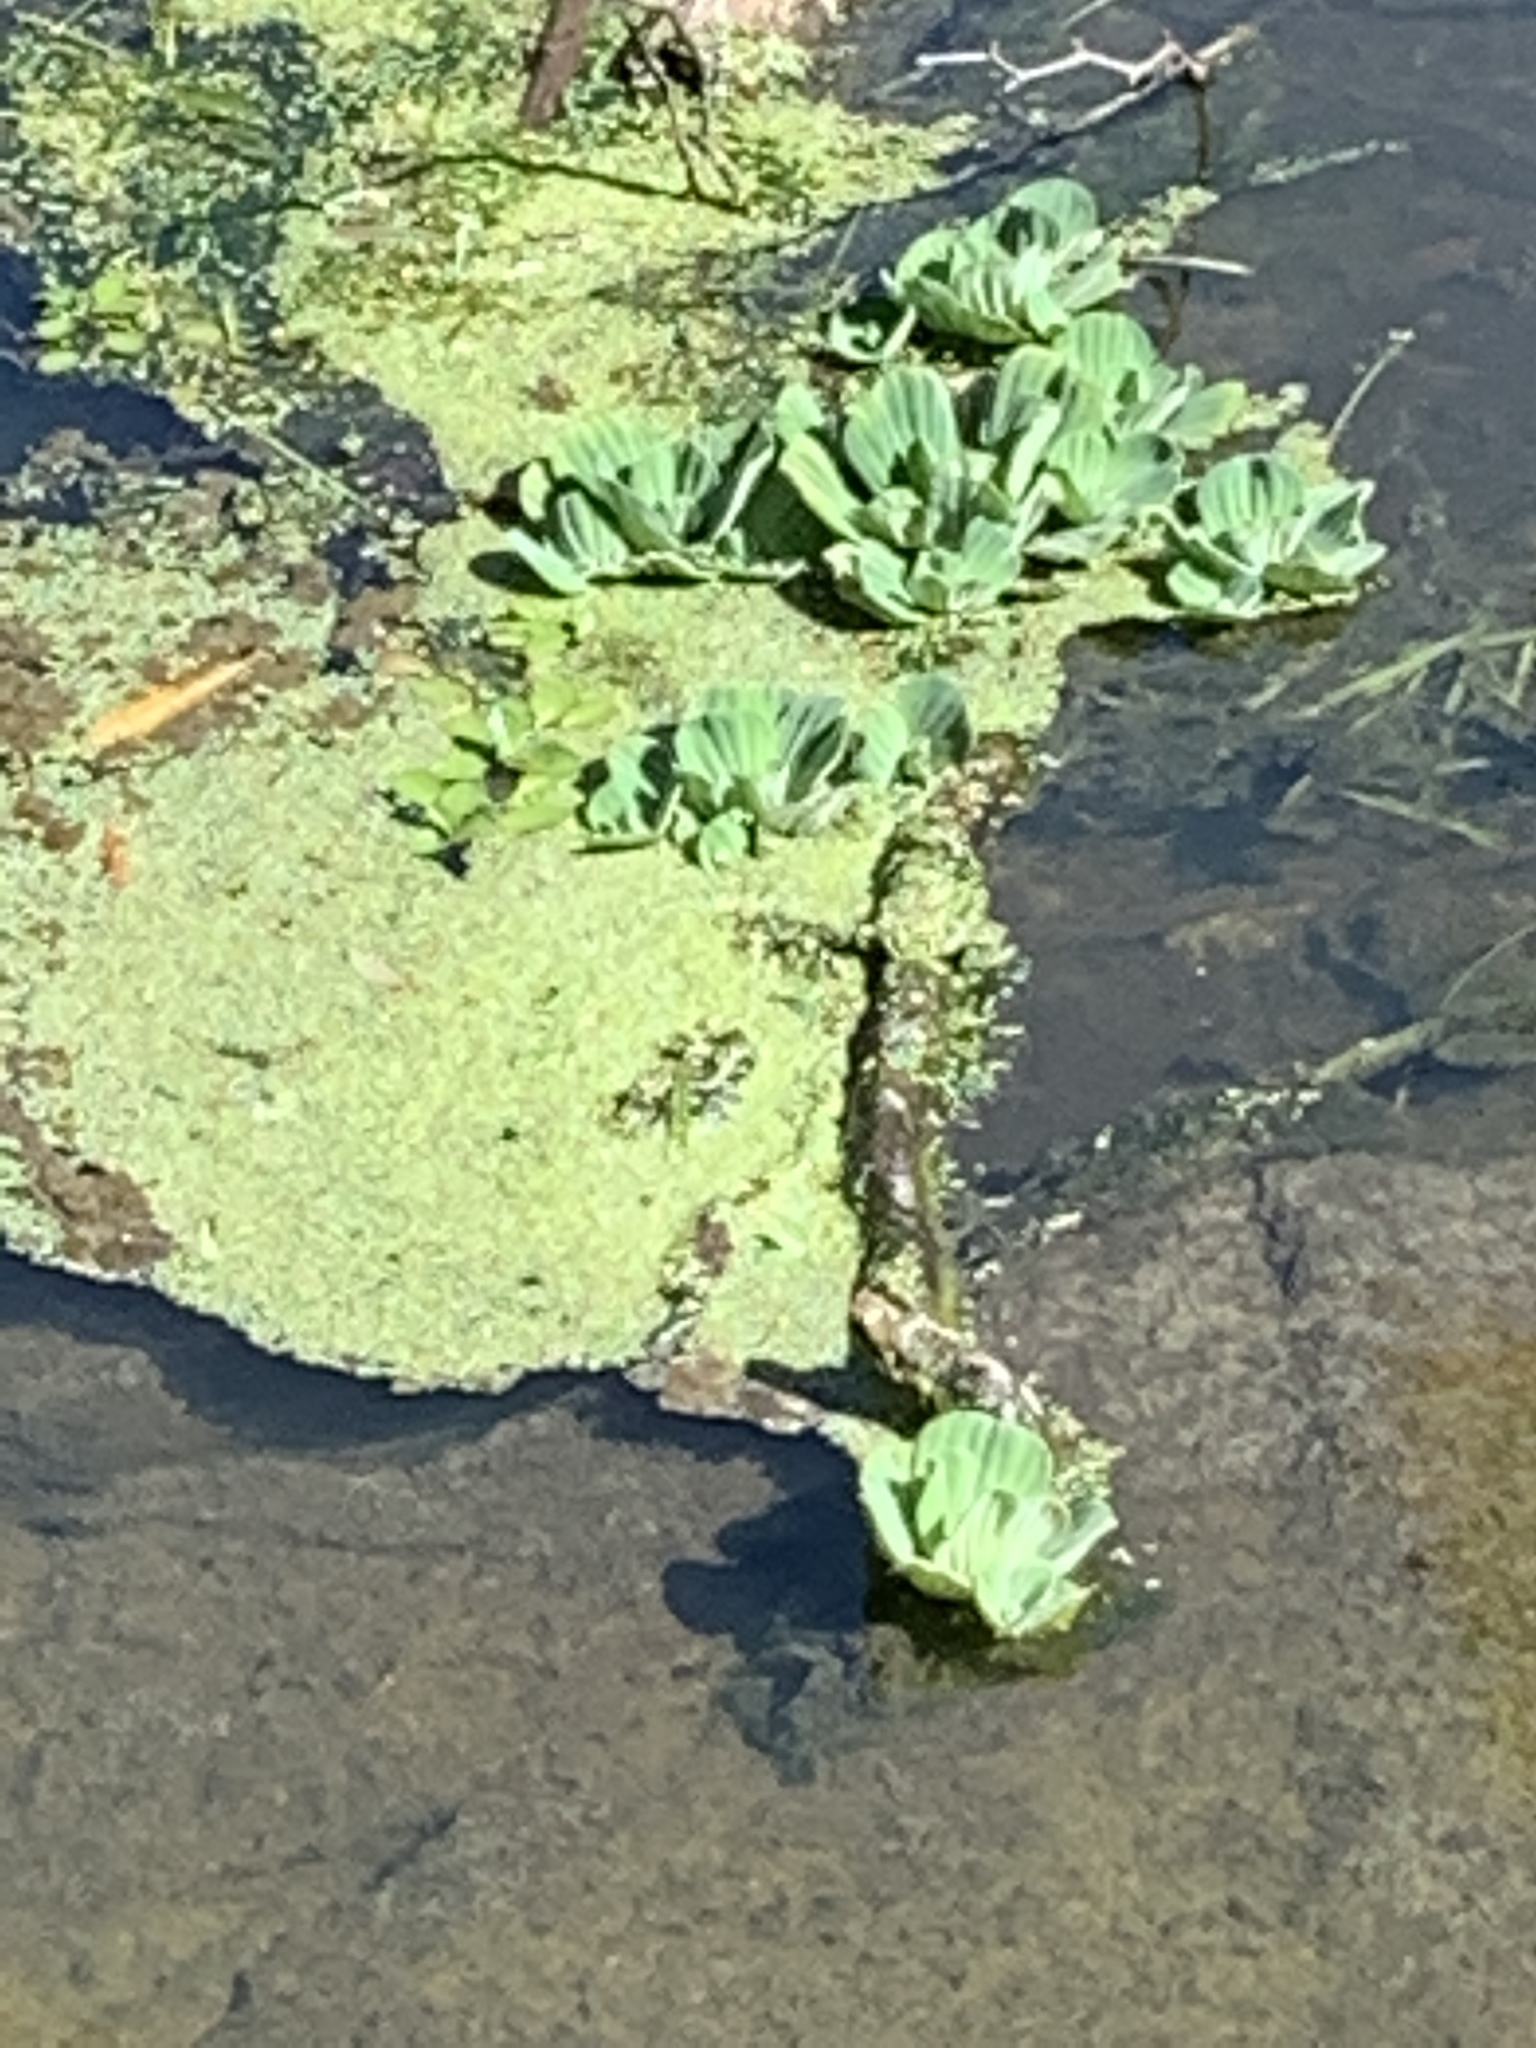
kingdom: Plantae
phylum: Tracheophyta
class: Liliopsida
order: Alismatales
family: Araceae
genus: Pistia
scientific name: Pistia stratiotes
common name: Water lettuce
